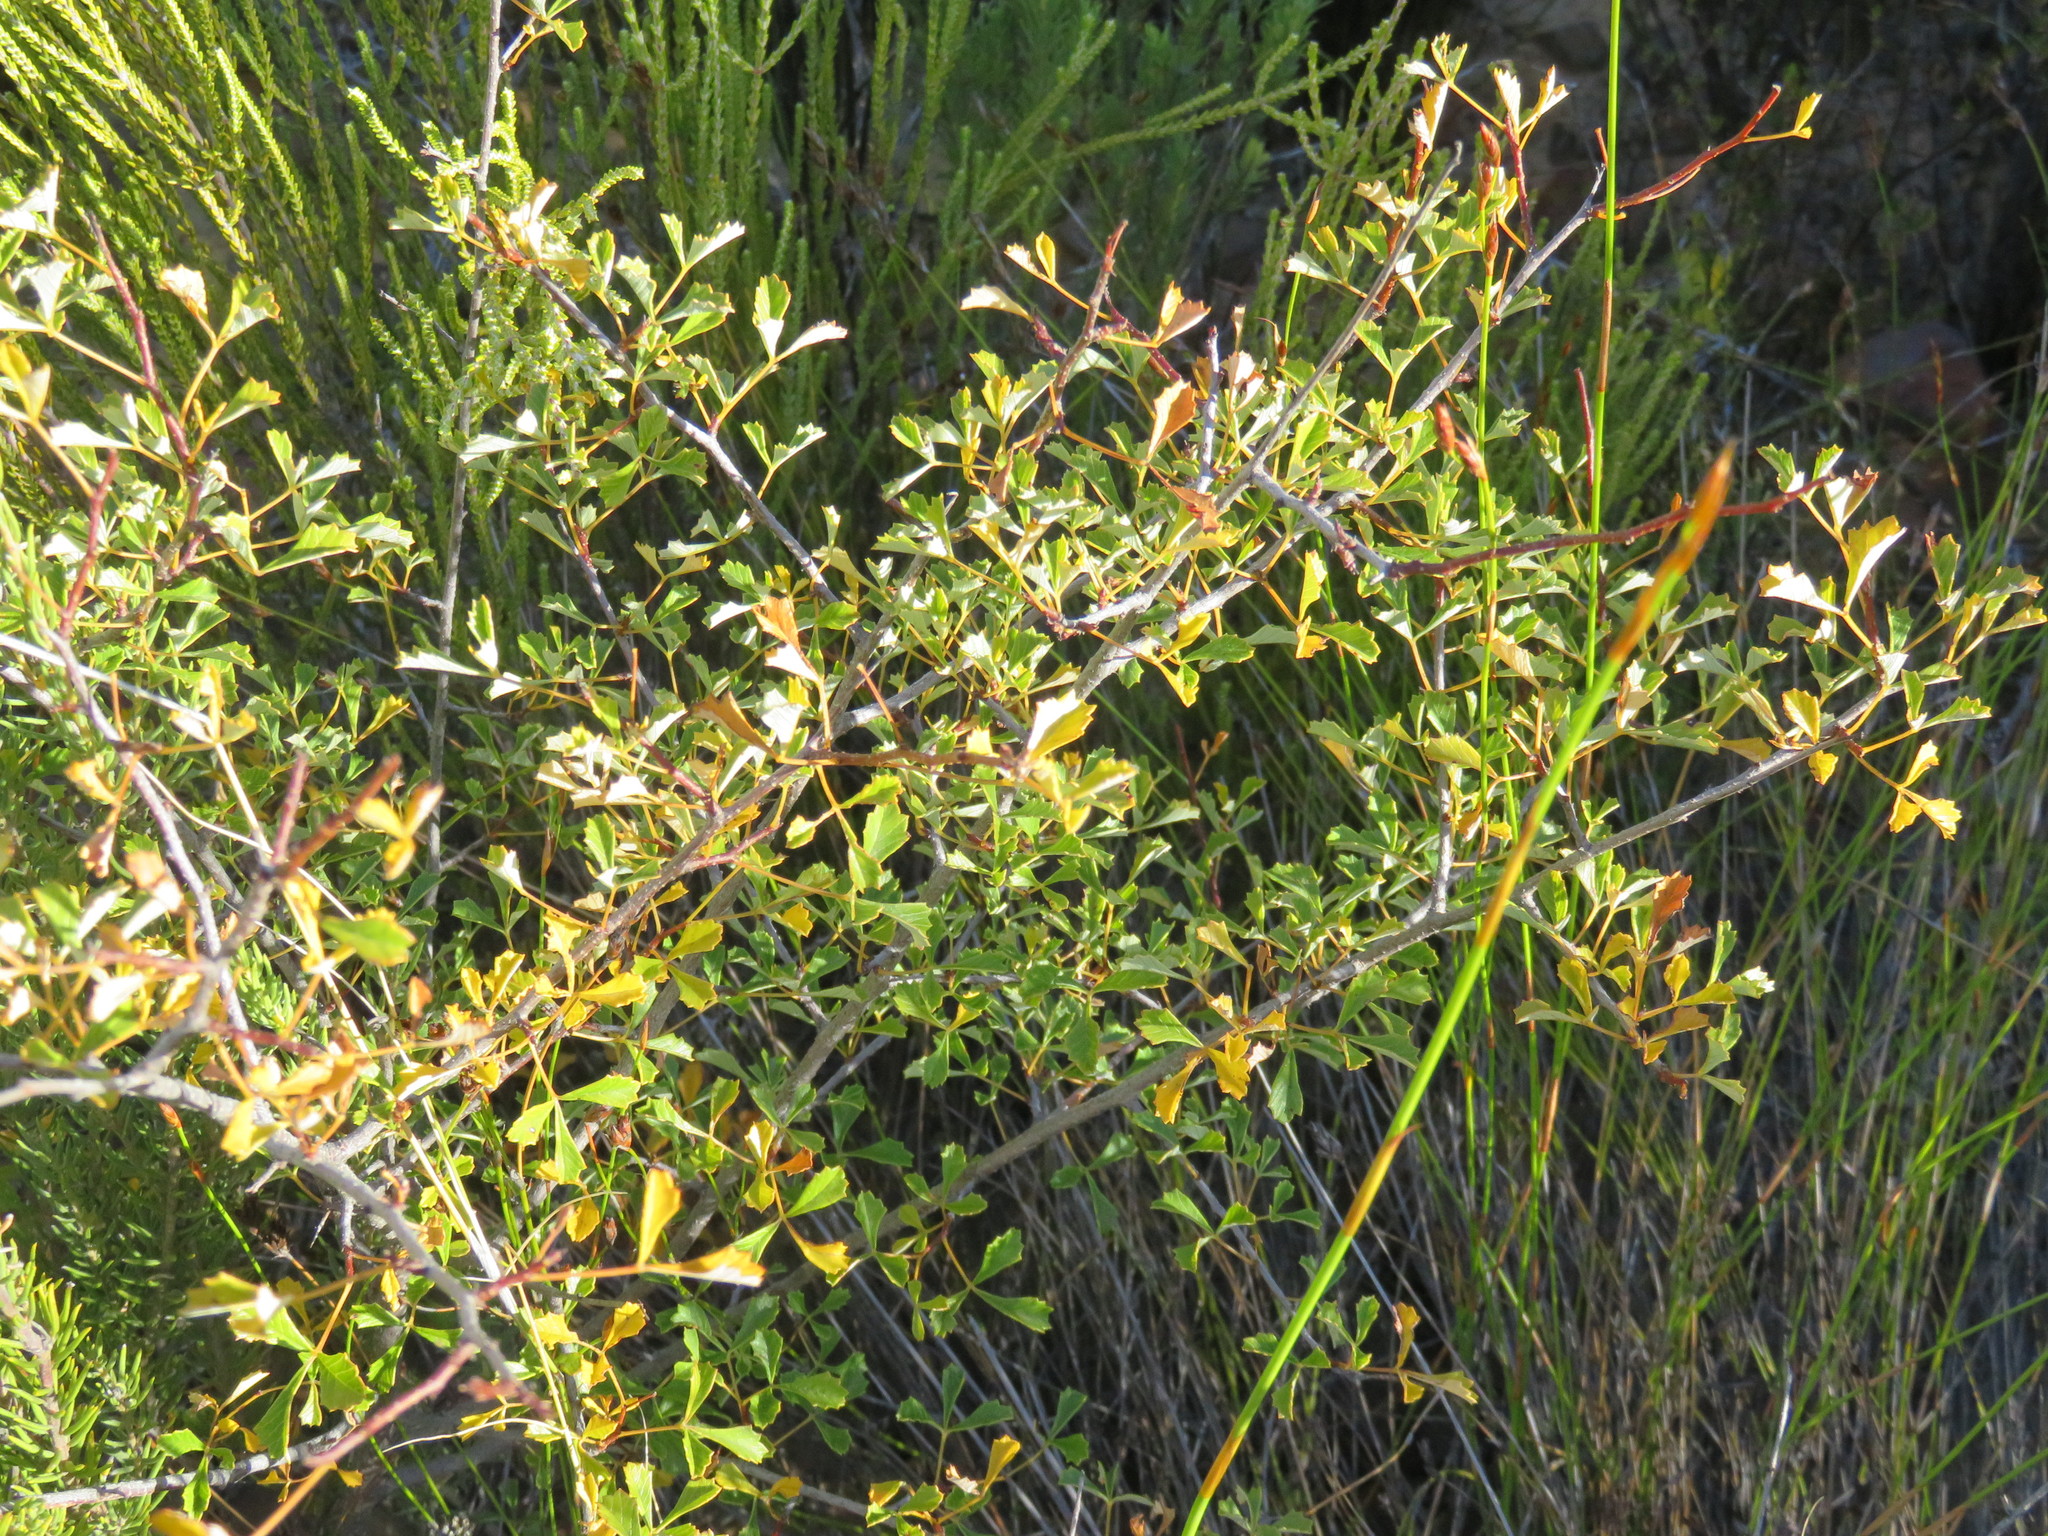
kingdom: Plantae
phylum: Tracheophyta
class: Magnoliopsida
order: Sapindales
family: Anacardiaceae
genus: Searsia
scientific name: Searsia dissecta
